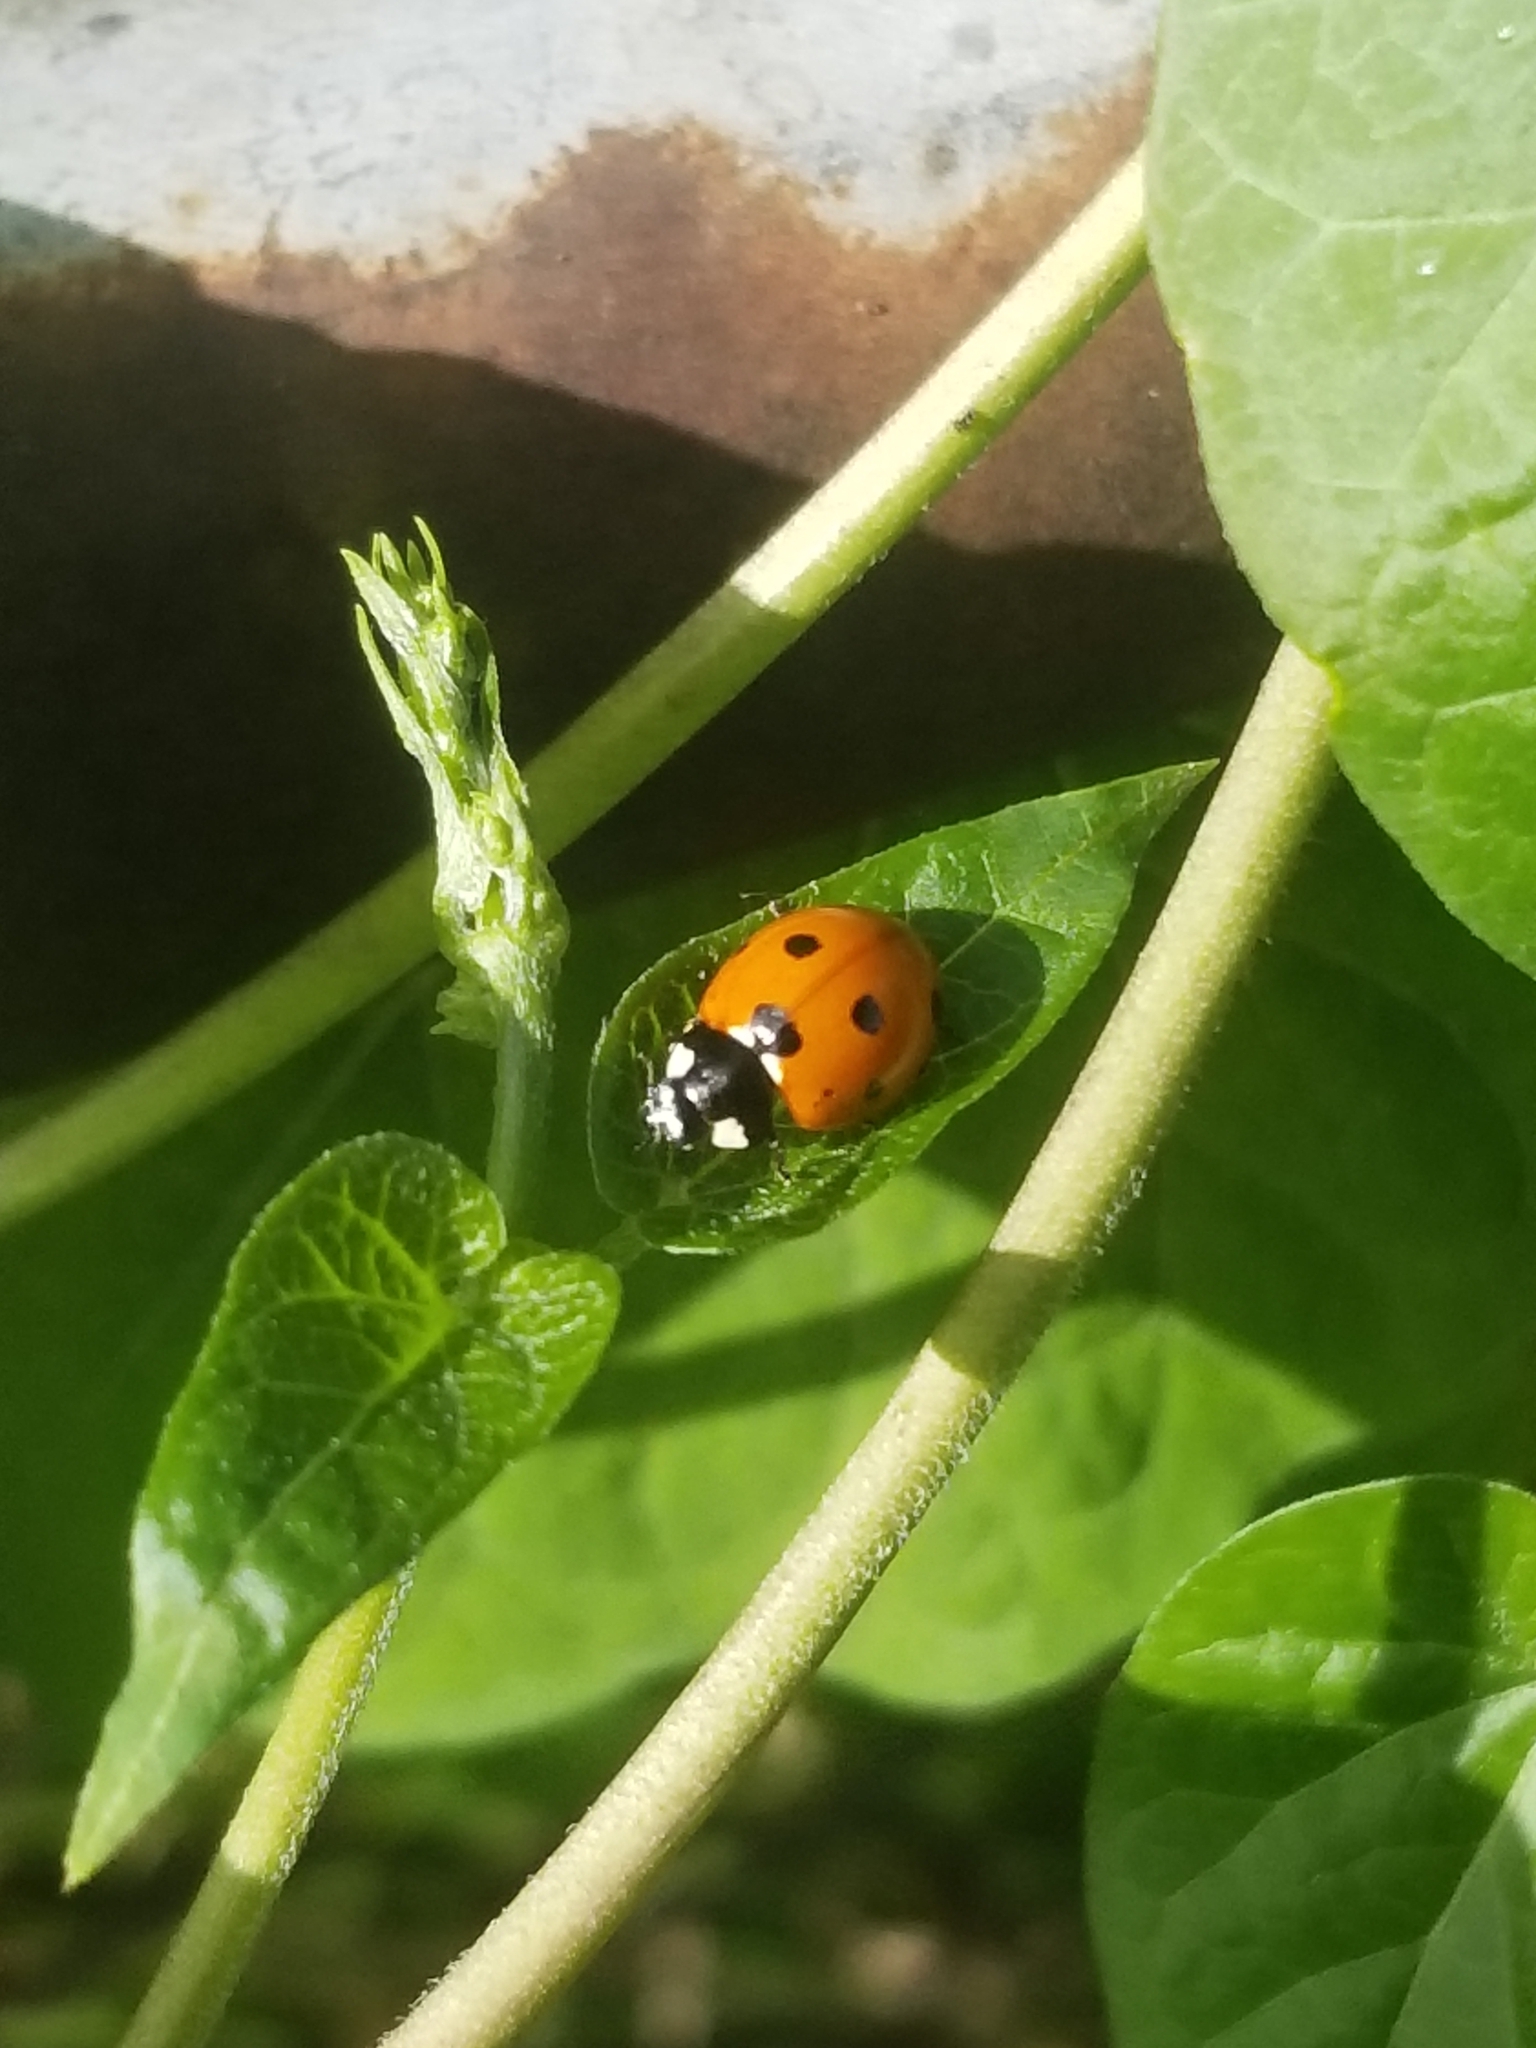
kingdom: Animalia
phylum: Arthropoda
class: Insecta
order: Coleoptera
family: Coccinellidae
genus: Coccinella
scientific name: Coccinella septempunctata
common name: Sevenspotted lady beetle
